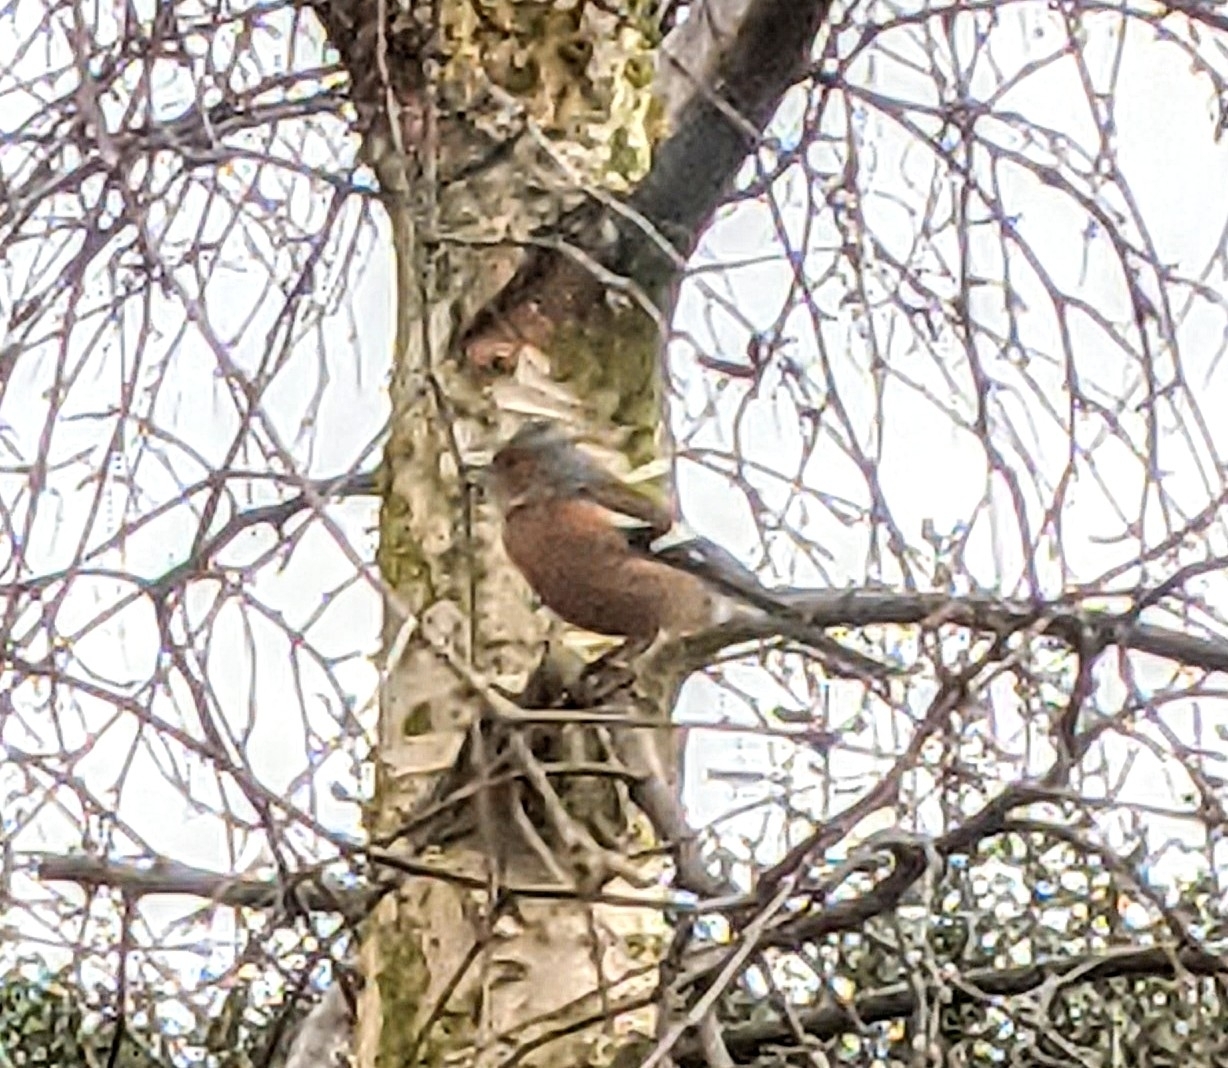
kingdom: Animalia
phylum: Chordata
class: Aves
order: Passeriformes
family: Fringillidae
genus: Fringilla
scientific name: Fringilla coelebs
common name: Common chaffinch
